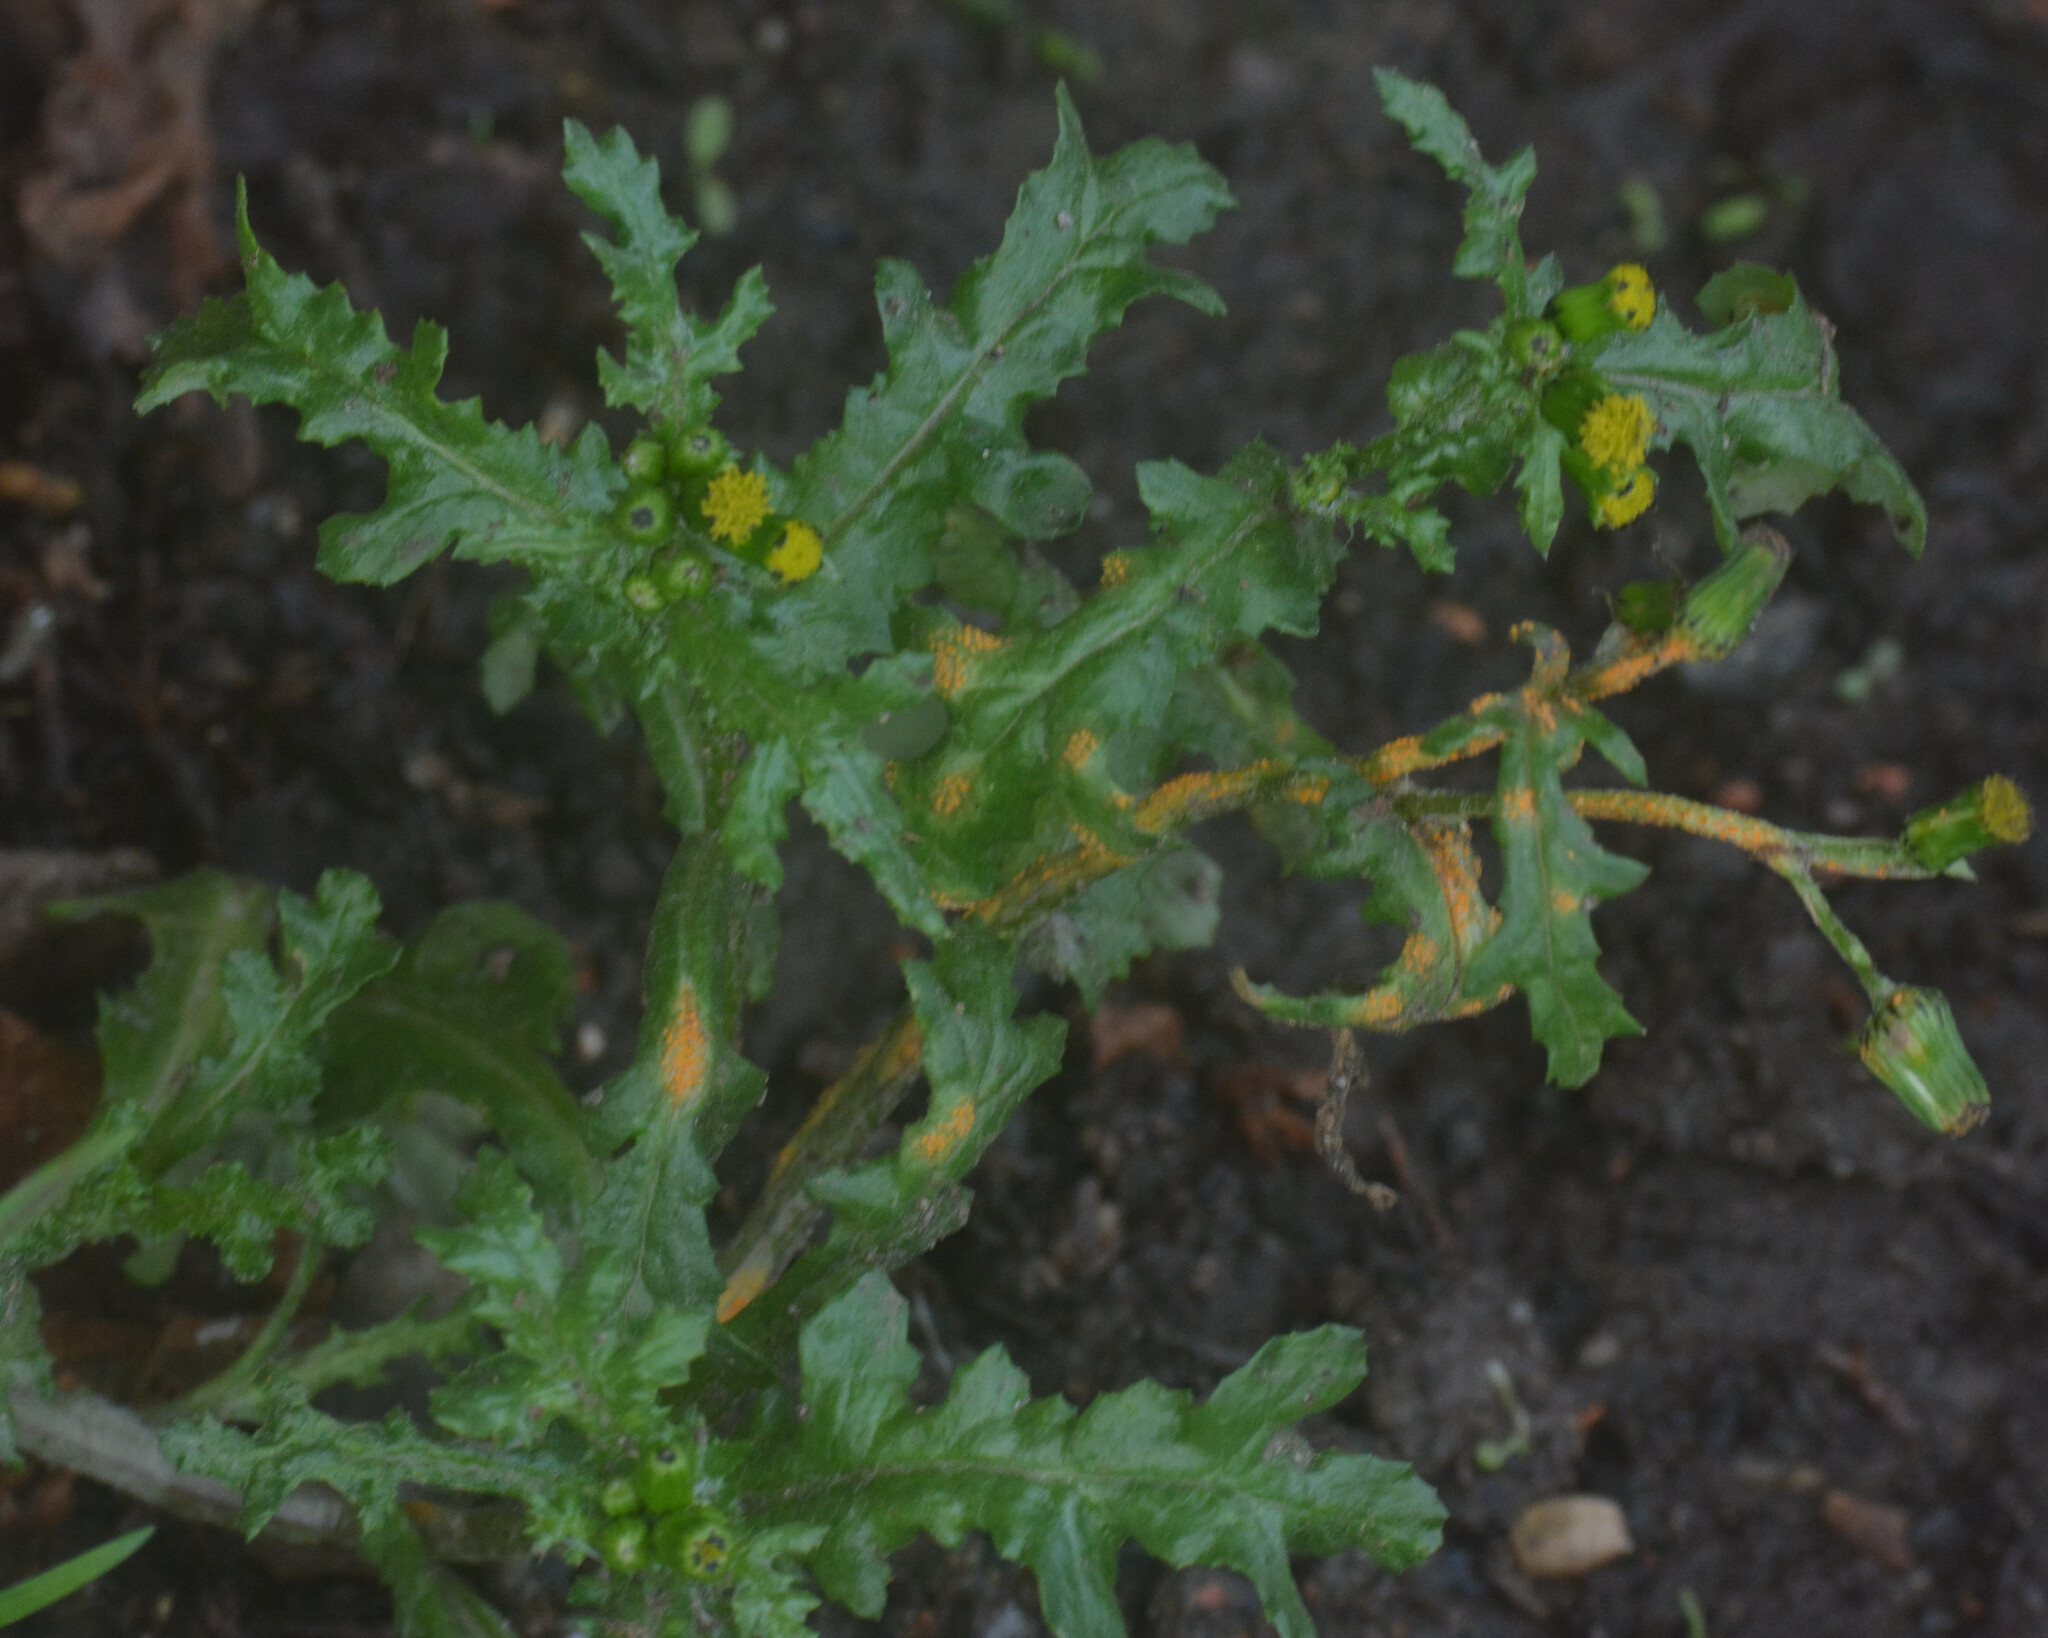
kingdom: Plantae
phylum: Tracheophyta
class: Magnoliopsida
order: Asterales
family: Asteraceae
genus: Senecio
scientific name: Senecio vulgaris
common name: Old-man-in-the-spring
